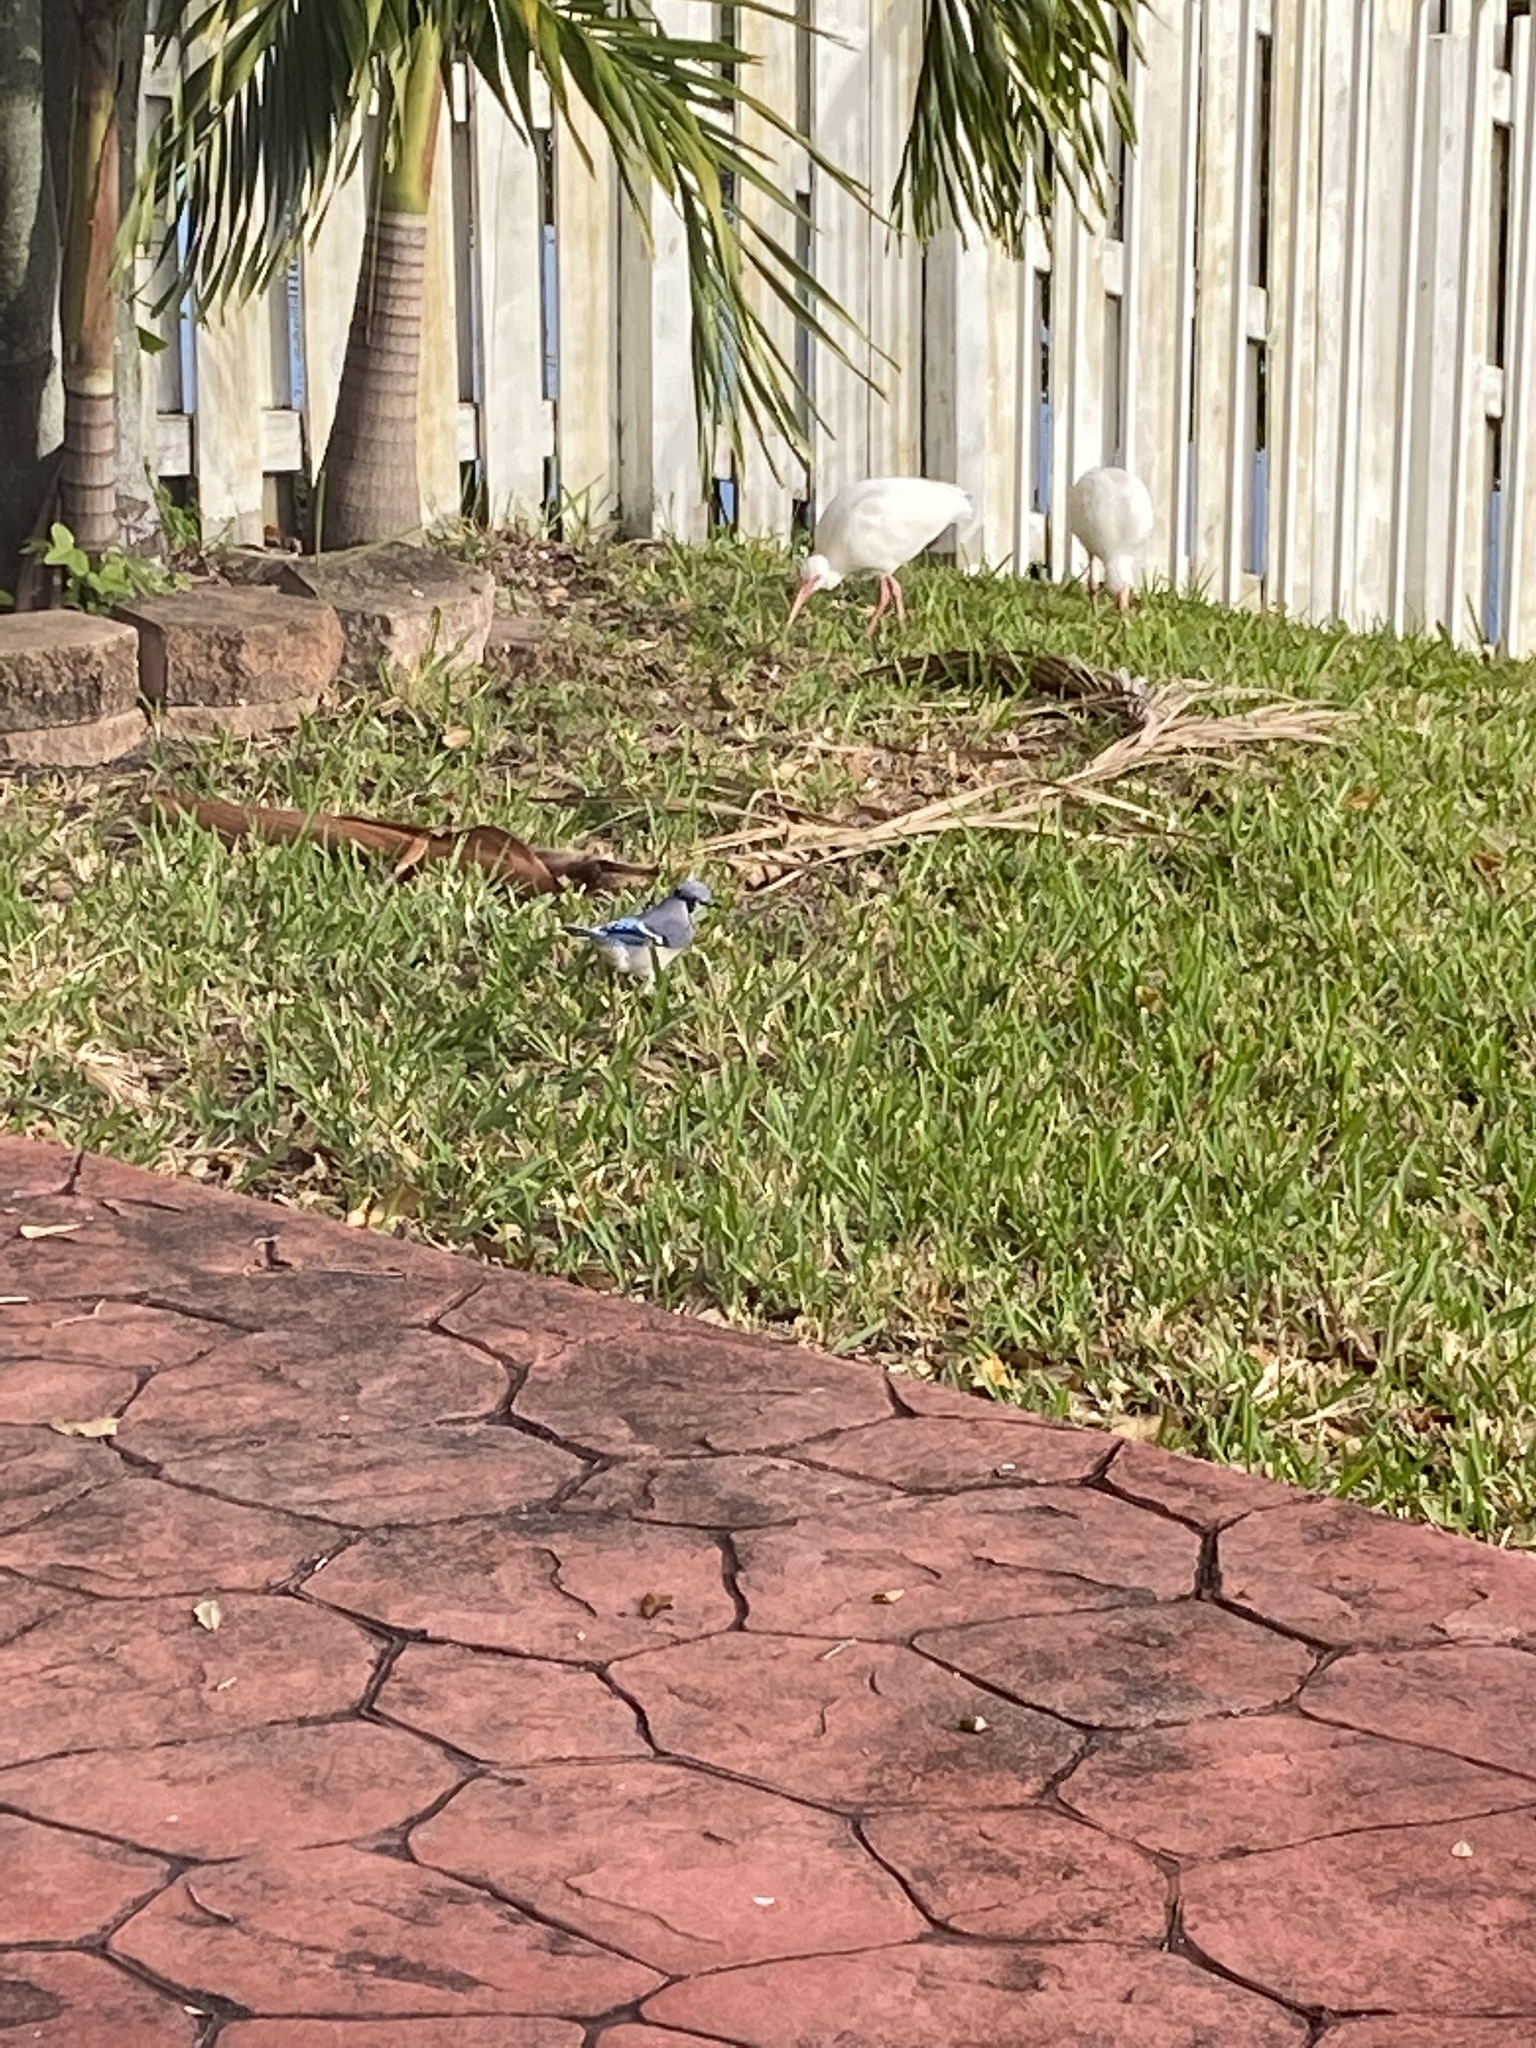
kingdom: Animalia
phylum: Chordata
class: Aves
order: Pelecaniformes
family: Threskiornithidae
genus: Eudocimus
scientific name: Eudocimus albus
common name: White ibis
